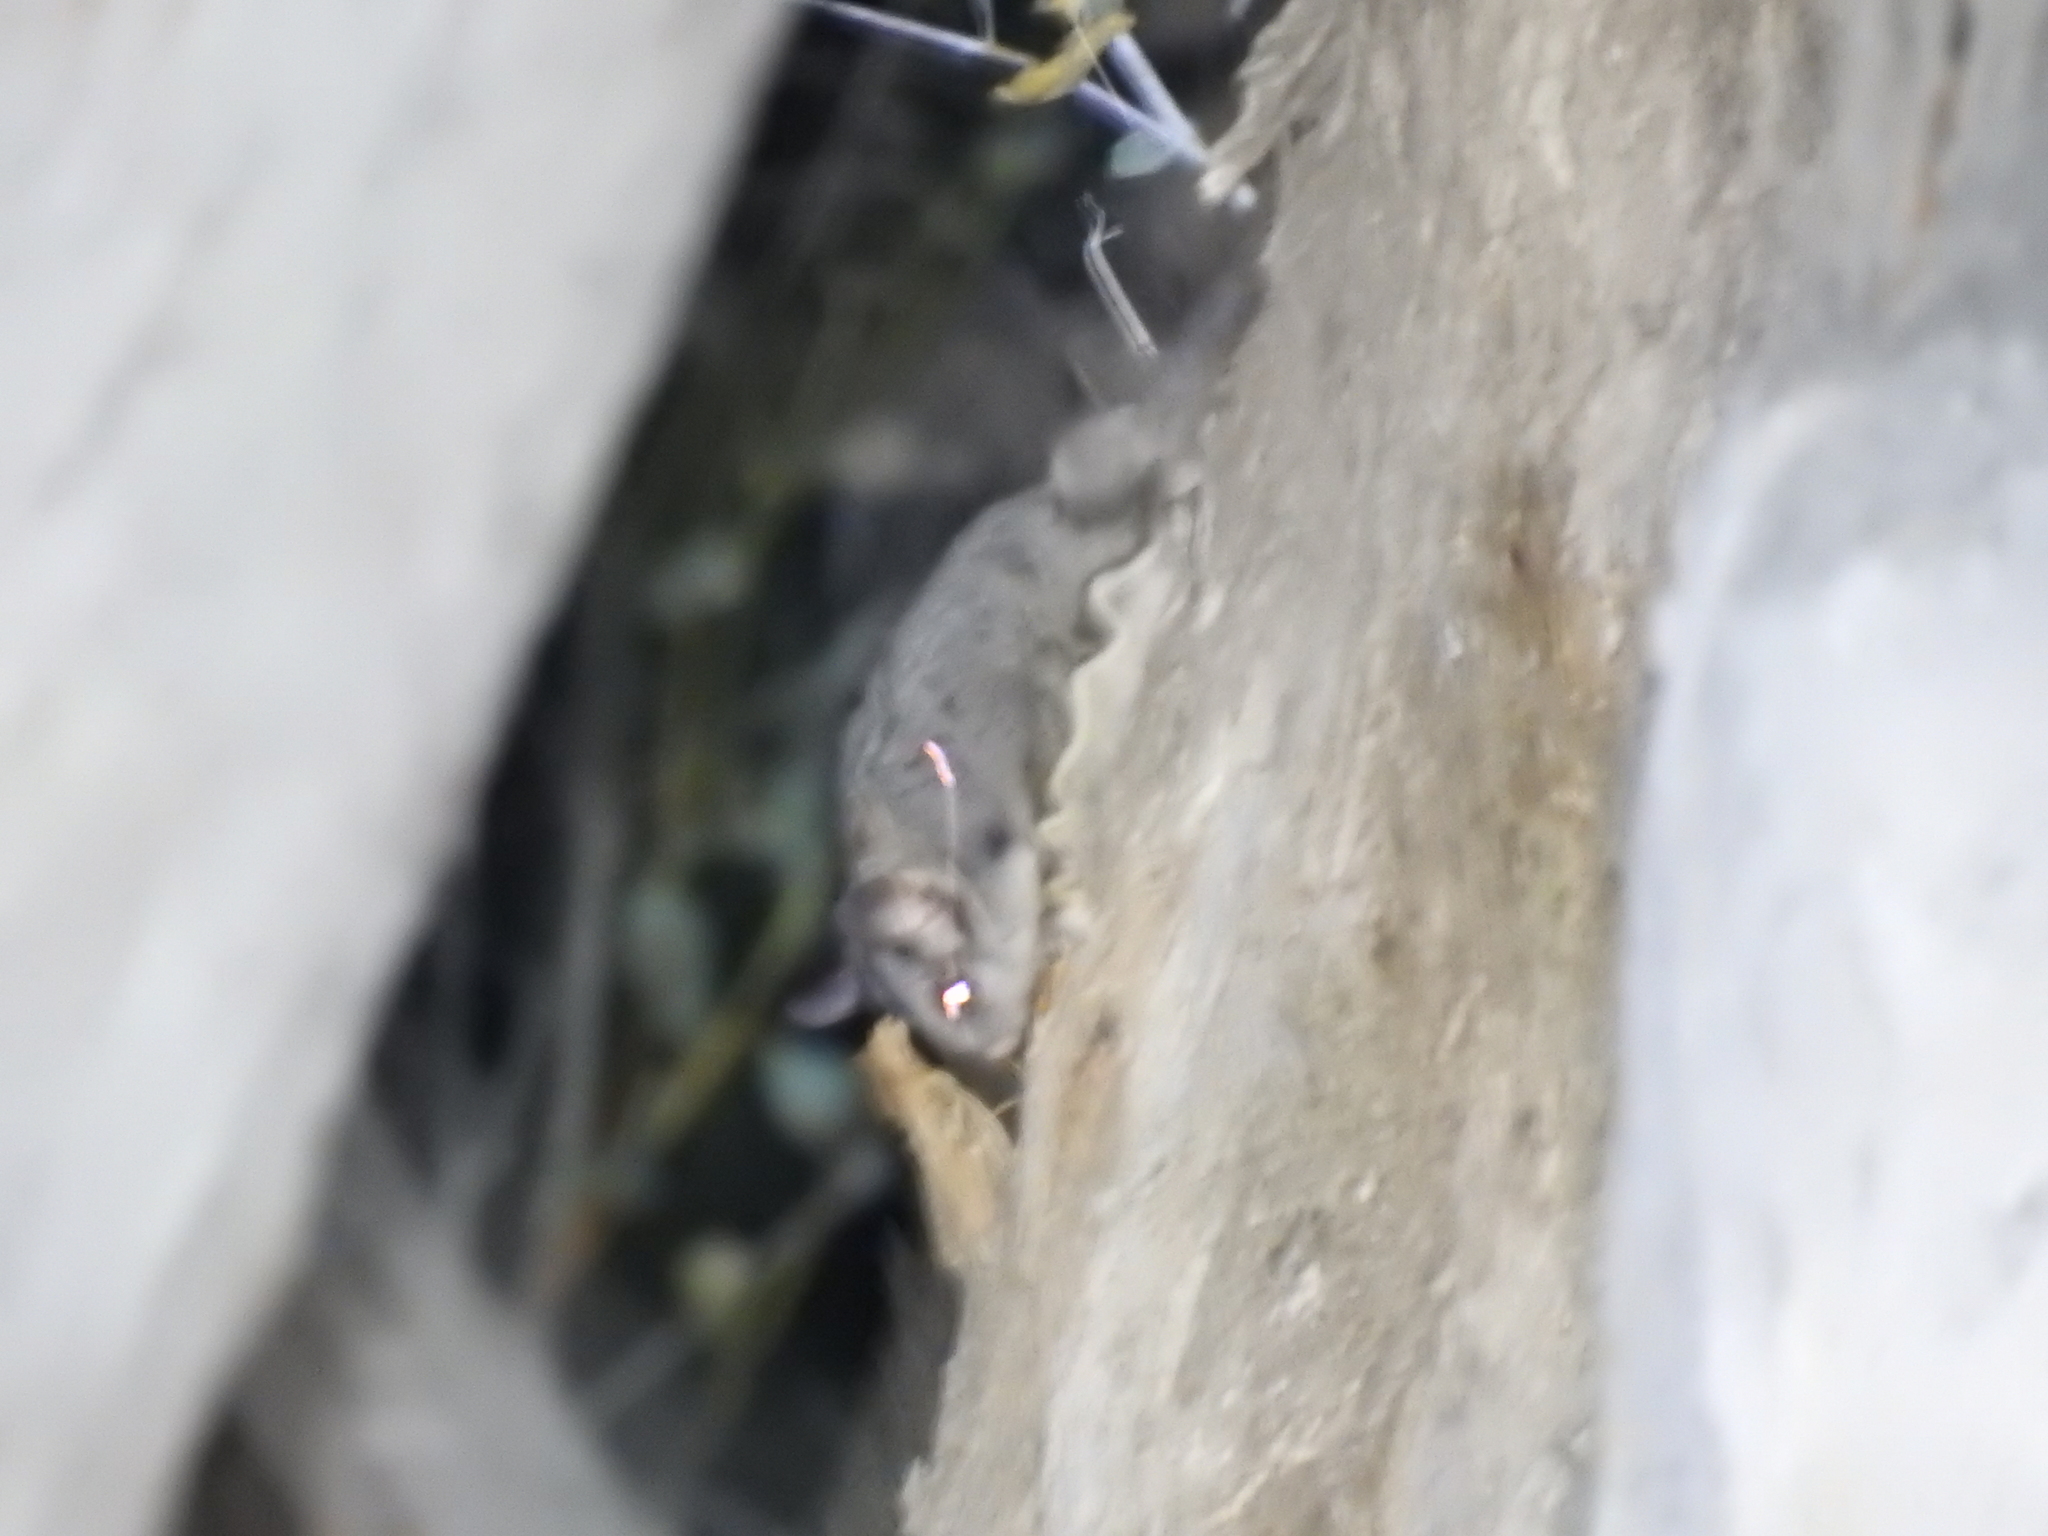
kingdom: Animalia
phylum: Chordata
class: Mammalia
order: Diprotodontia
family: Petauridae
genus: Petaurus
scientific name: Petaurus breviceps
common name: Sugar glider
